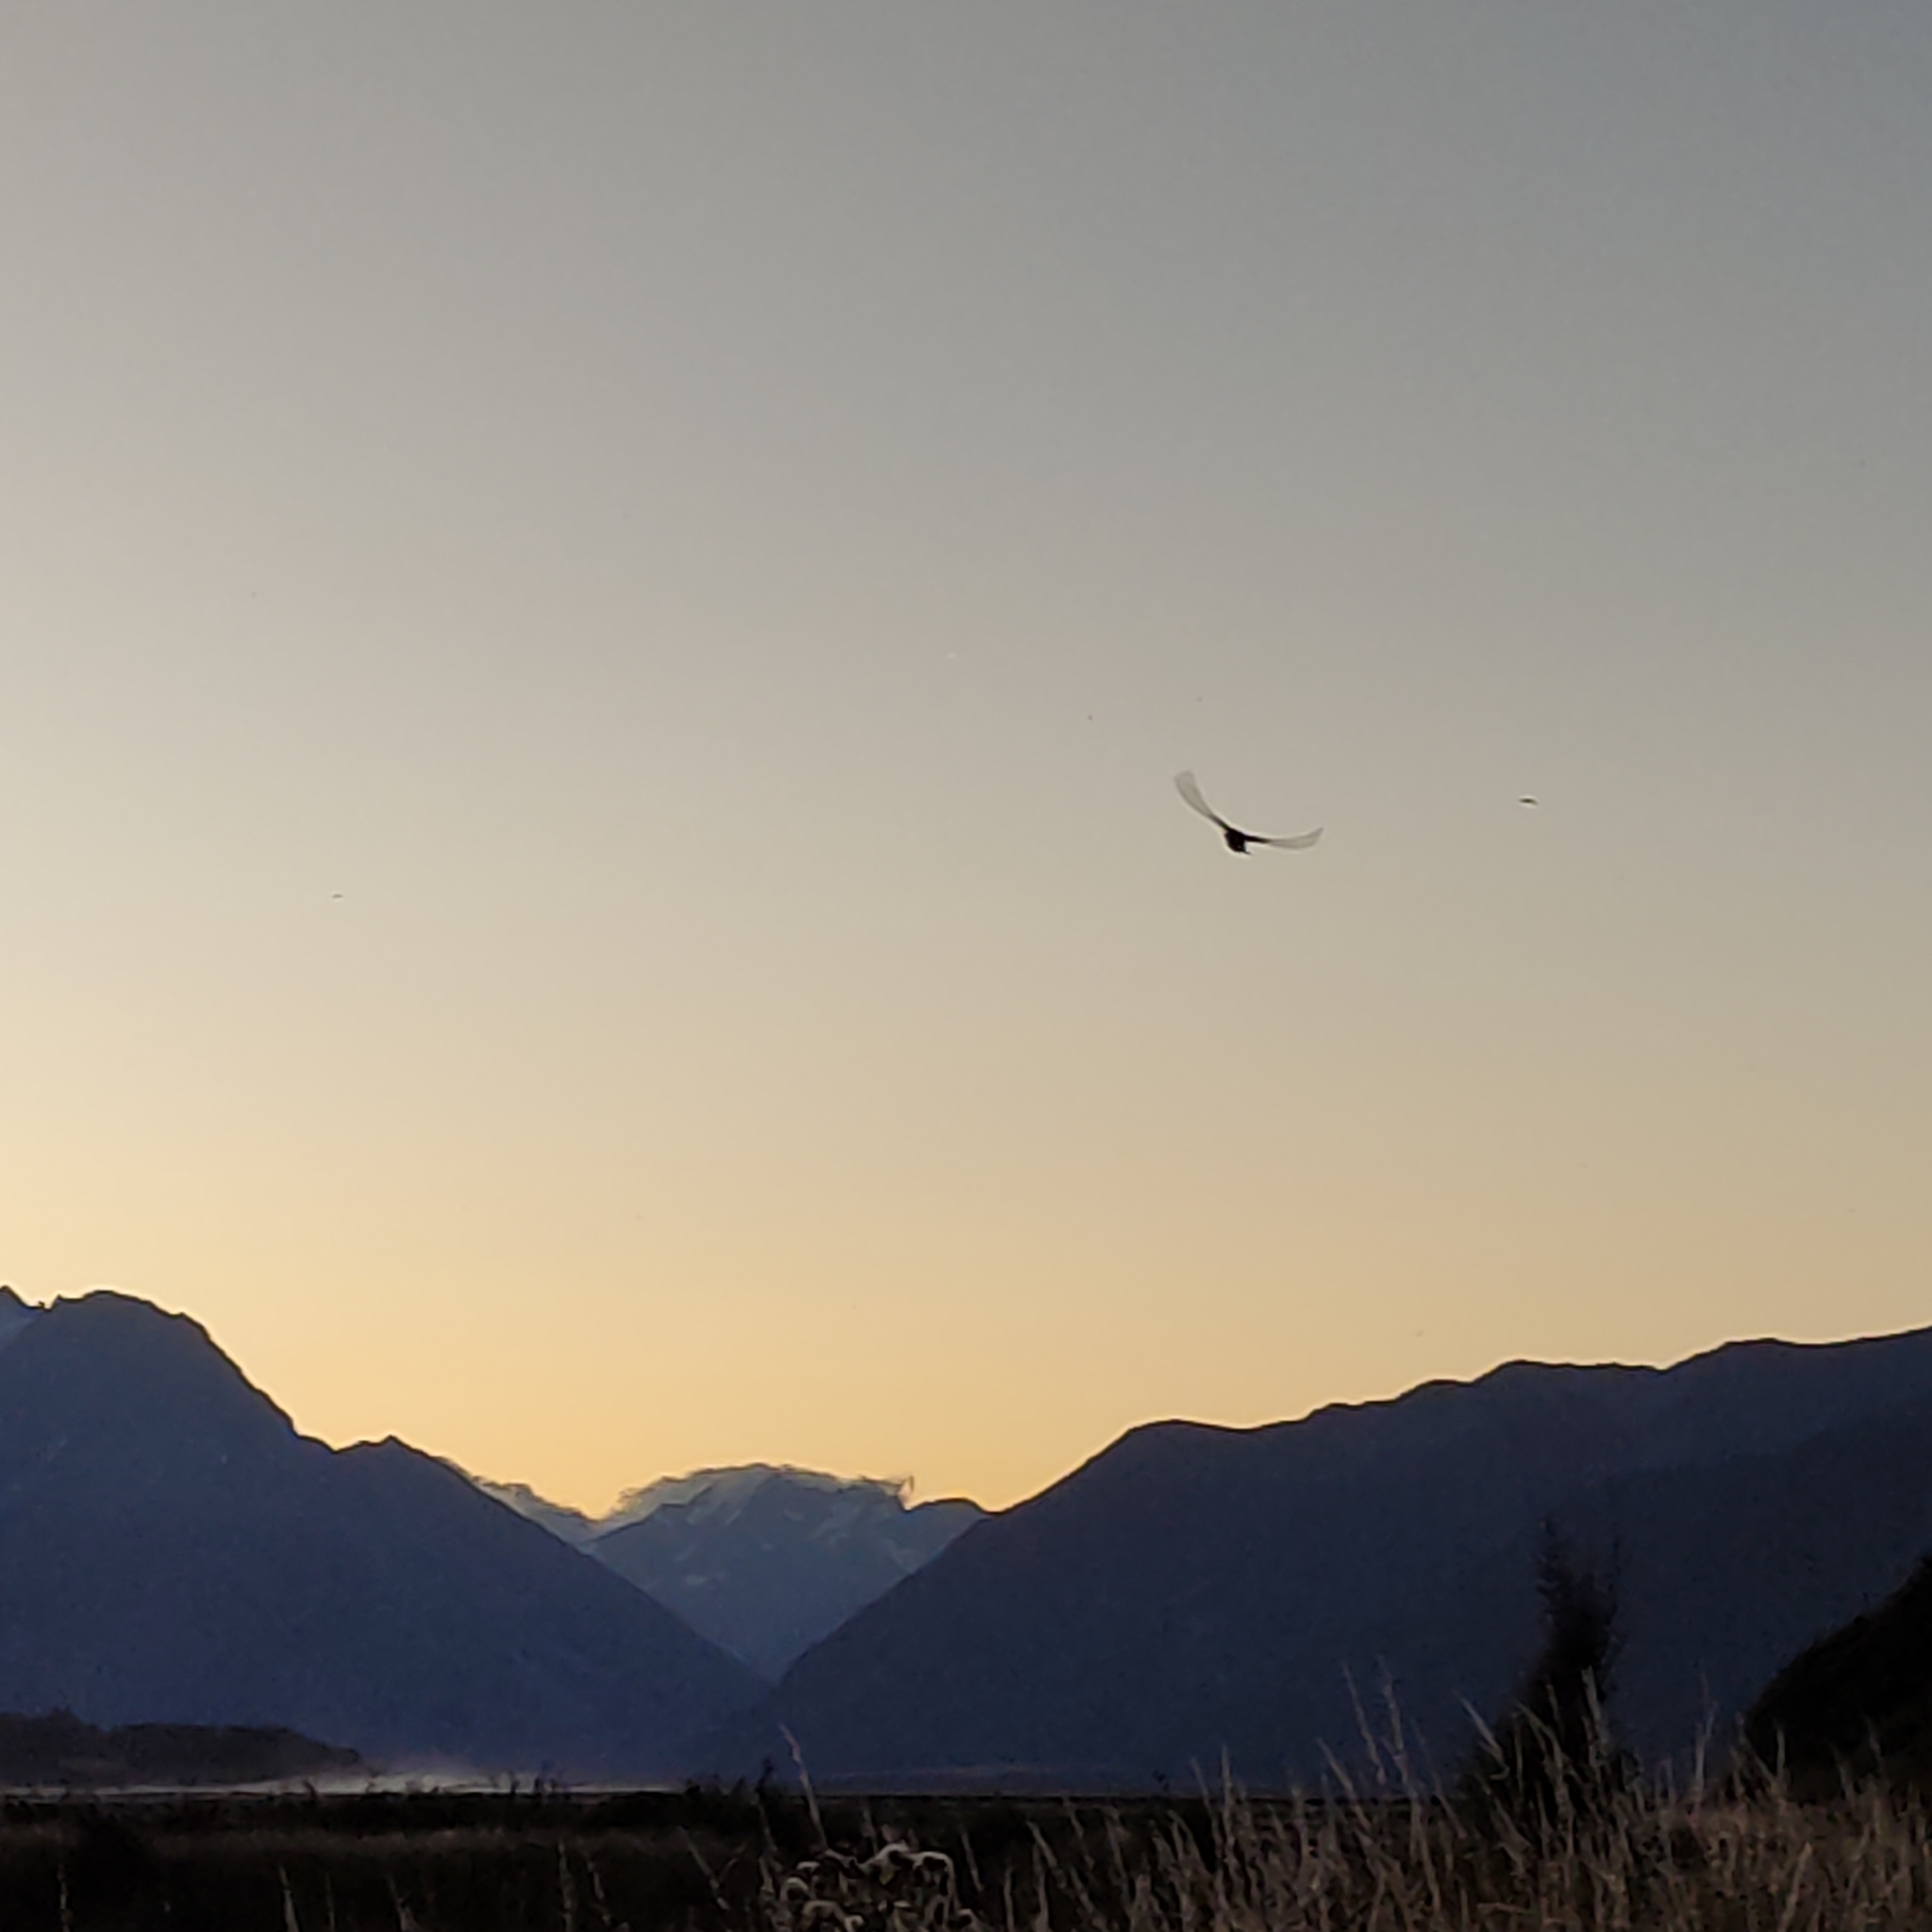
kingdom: Animalia
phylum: Chordata
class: Aves
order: Passeriformes
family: Hirundinidae
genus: Hirundo
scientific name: Hirundo neoxena
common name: Welcome swallow
